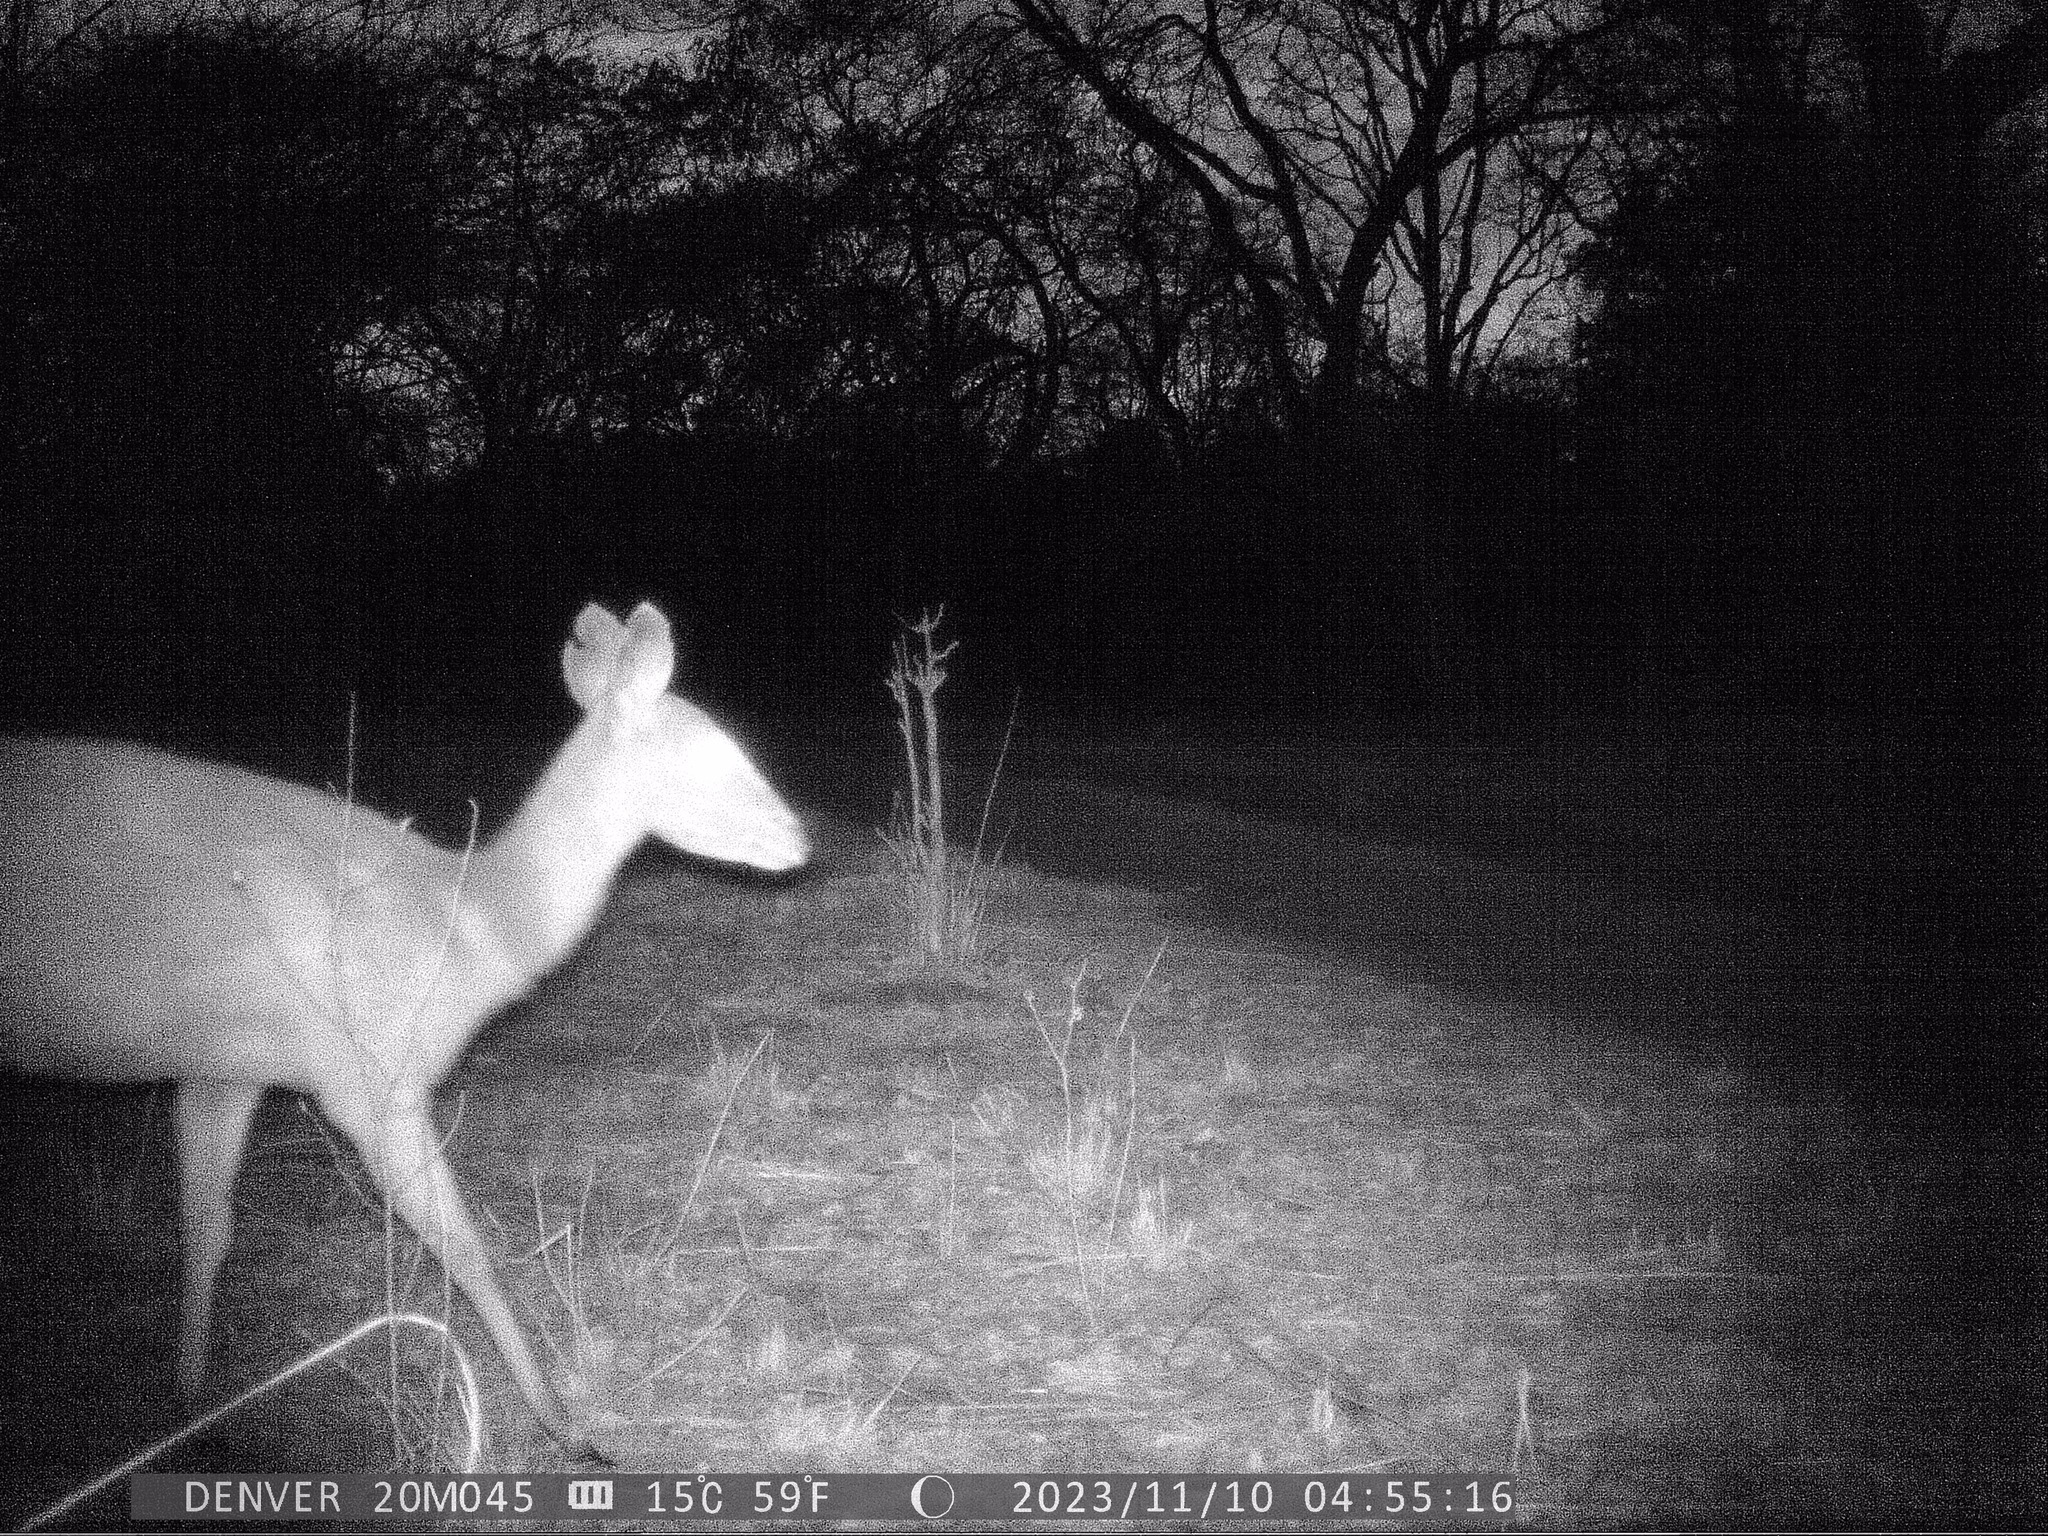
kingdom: Animalia
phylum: Chordata
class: Mammalia
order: Artiodactyla
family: Bovidae
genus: Tragelaphus
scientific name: Tragelaphus scriptus
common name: Bushbuck
